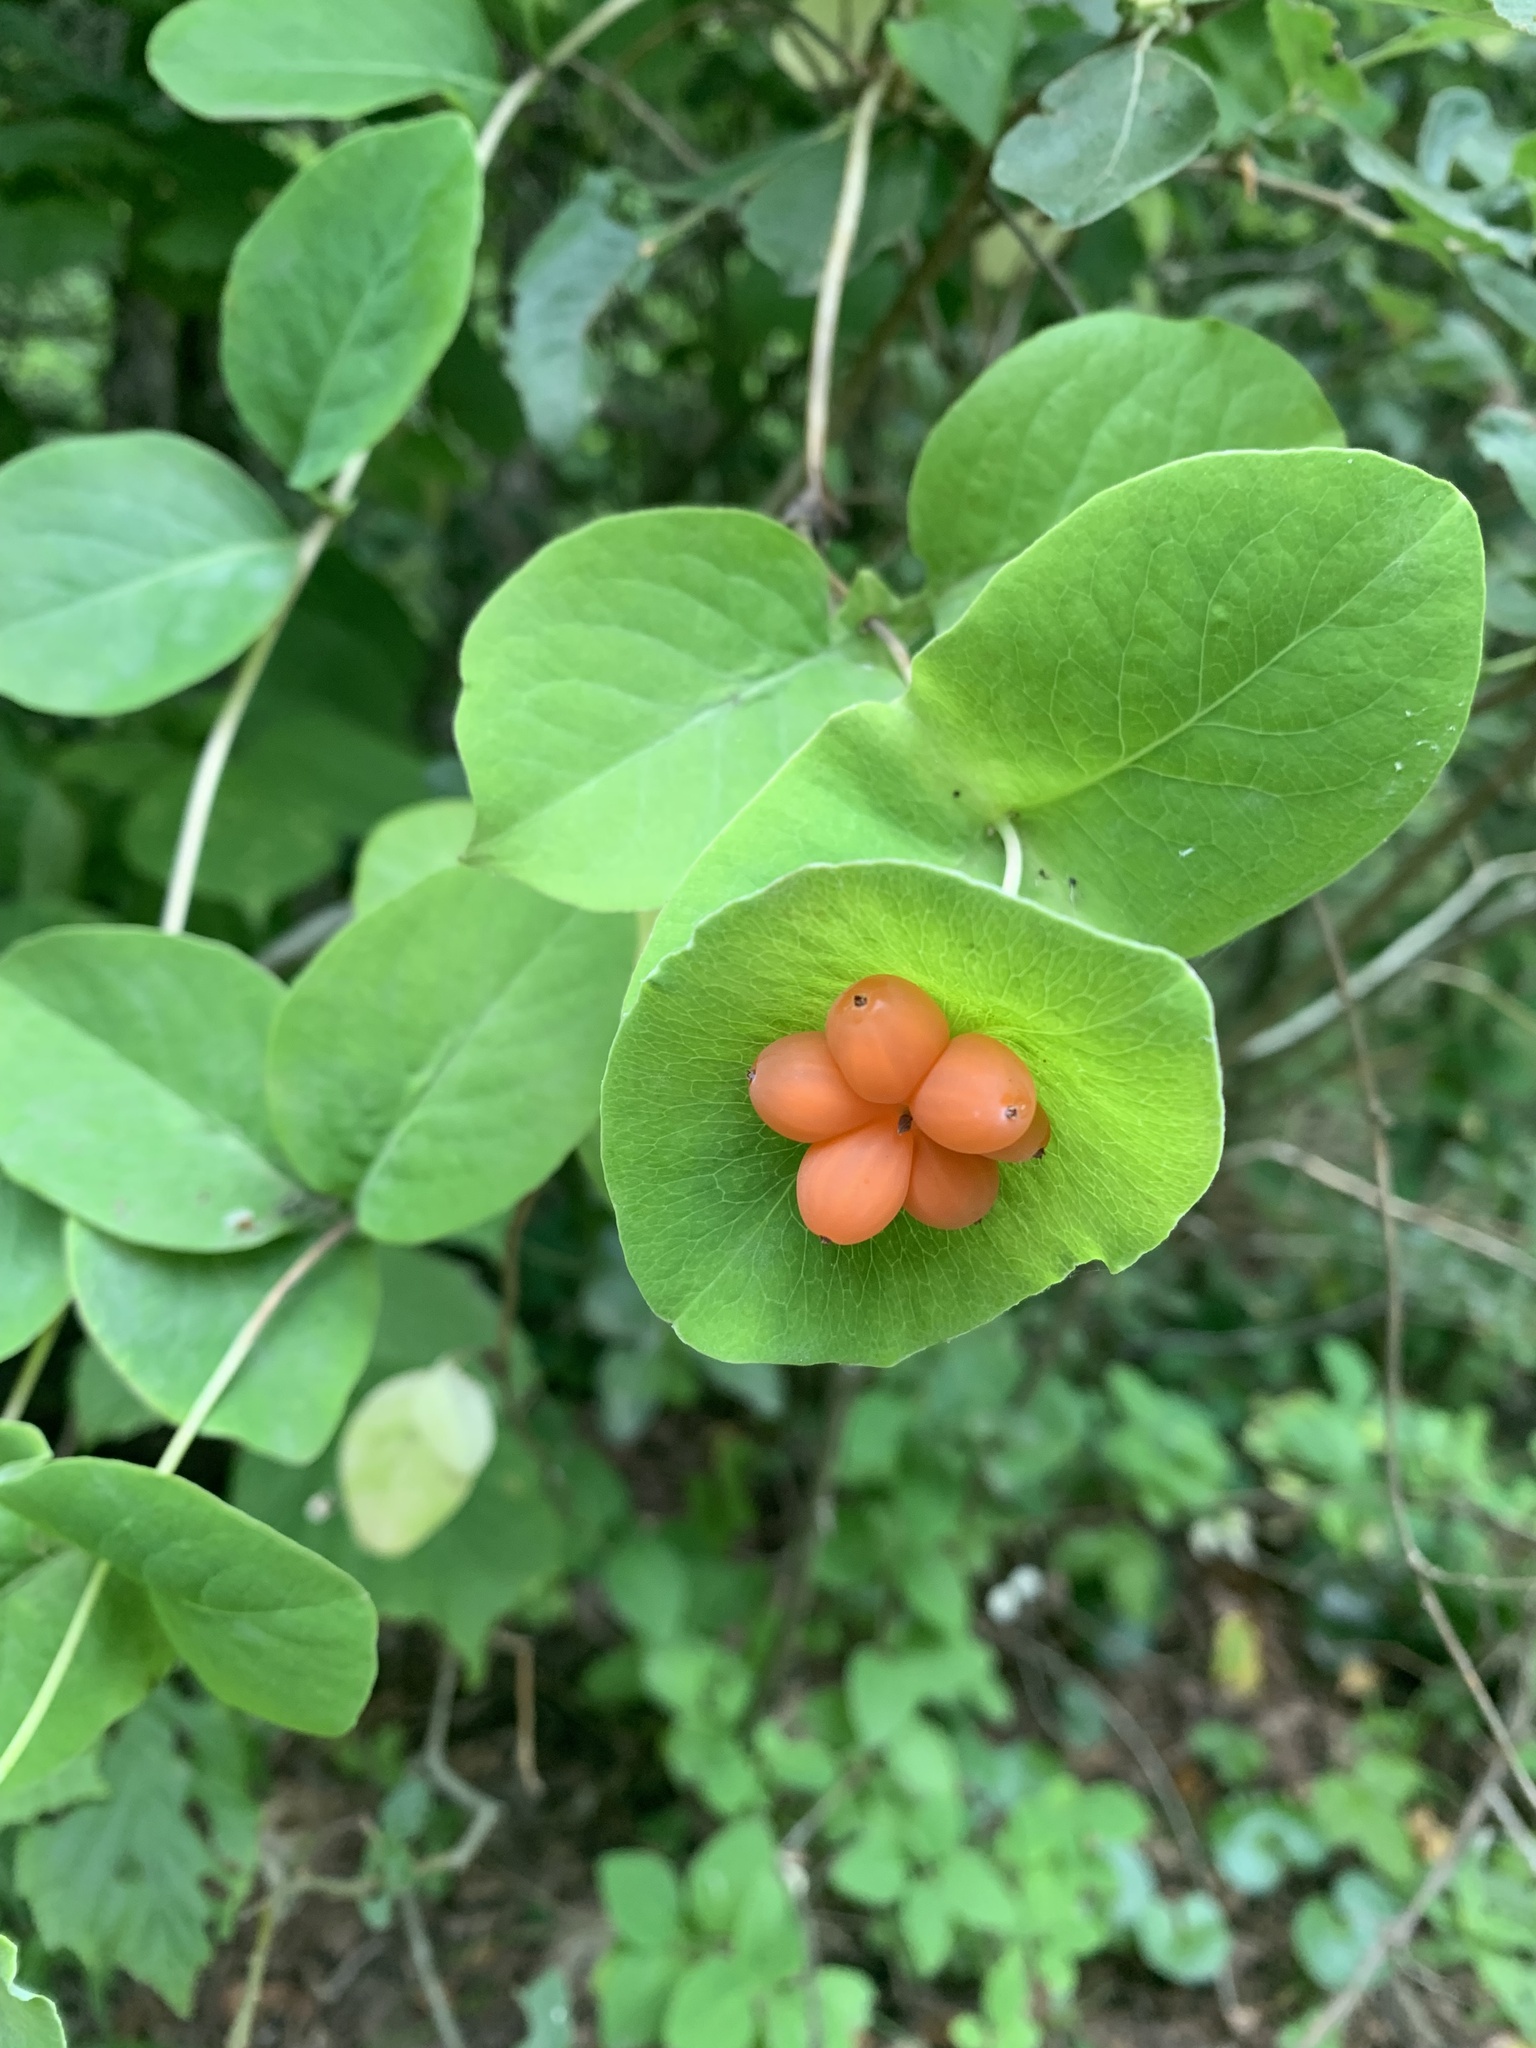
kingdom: Plantae
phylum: Tracheophyta
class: Magnoliopsida
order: Dipsacales
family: Caprifoliaceae
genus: Lonicera
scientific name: Lonicera caprifolium
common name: Perfoliate honeysuckle
